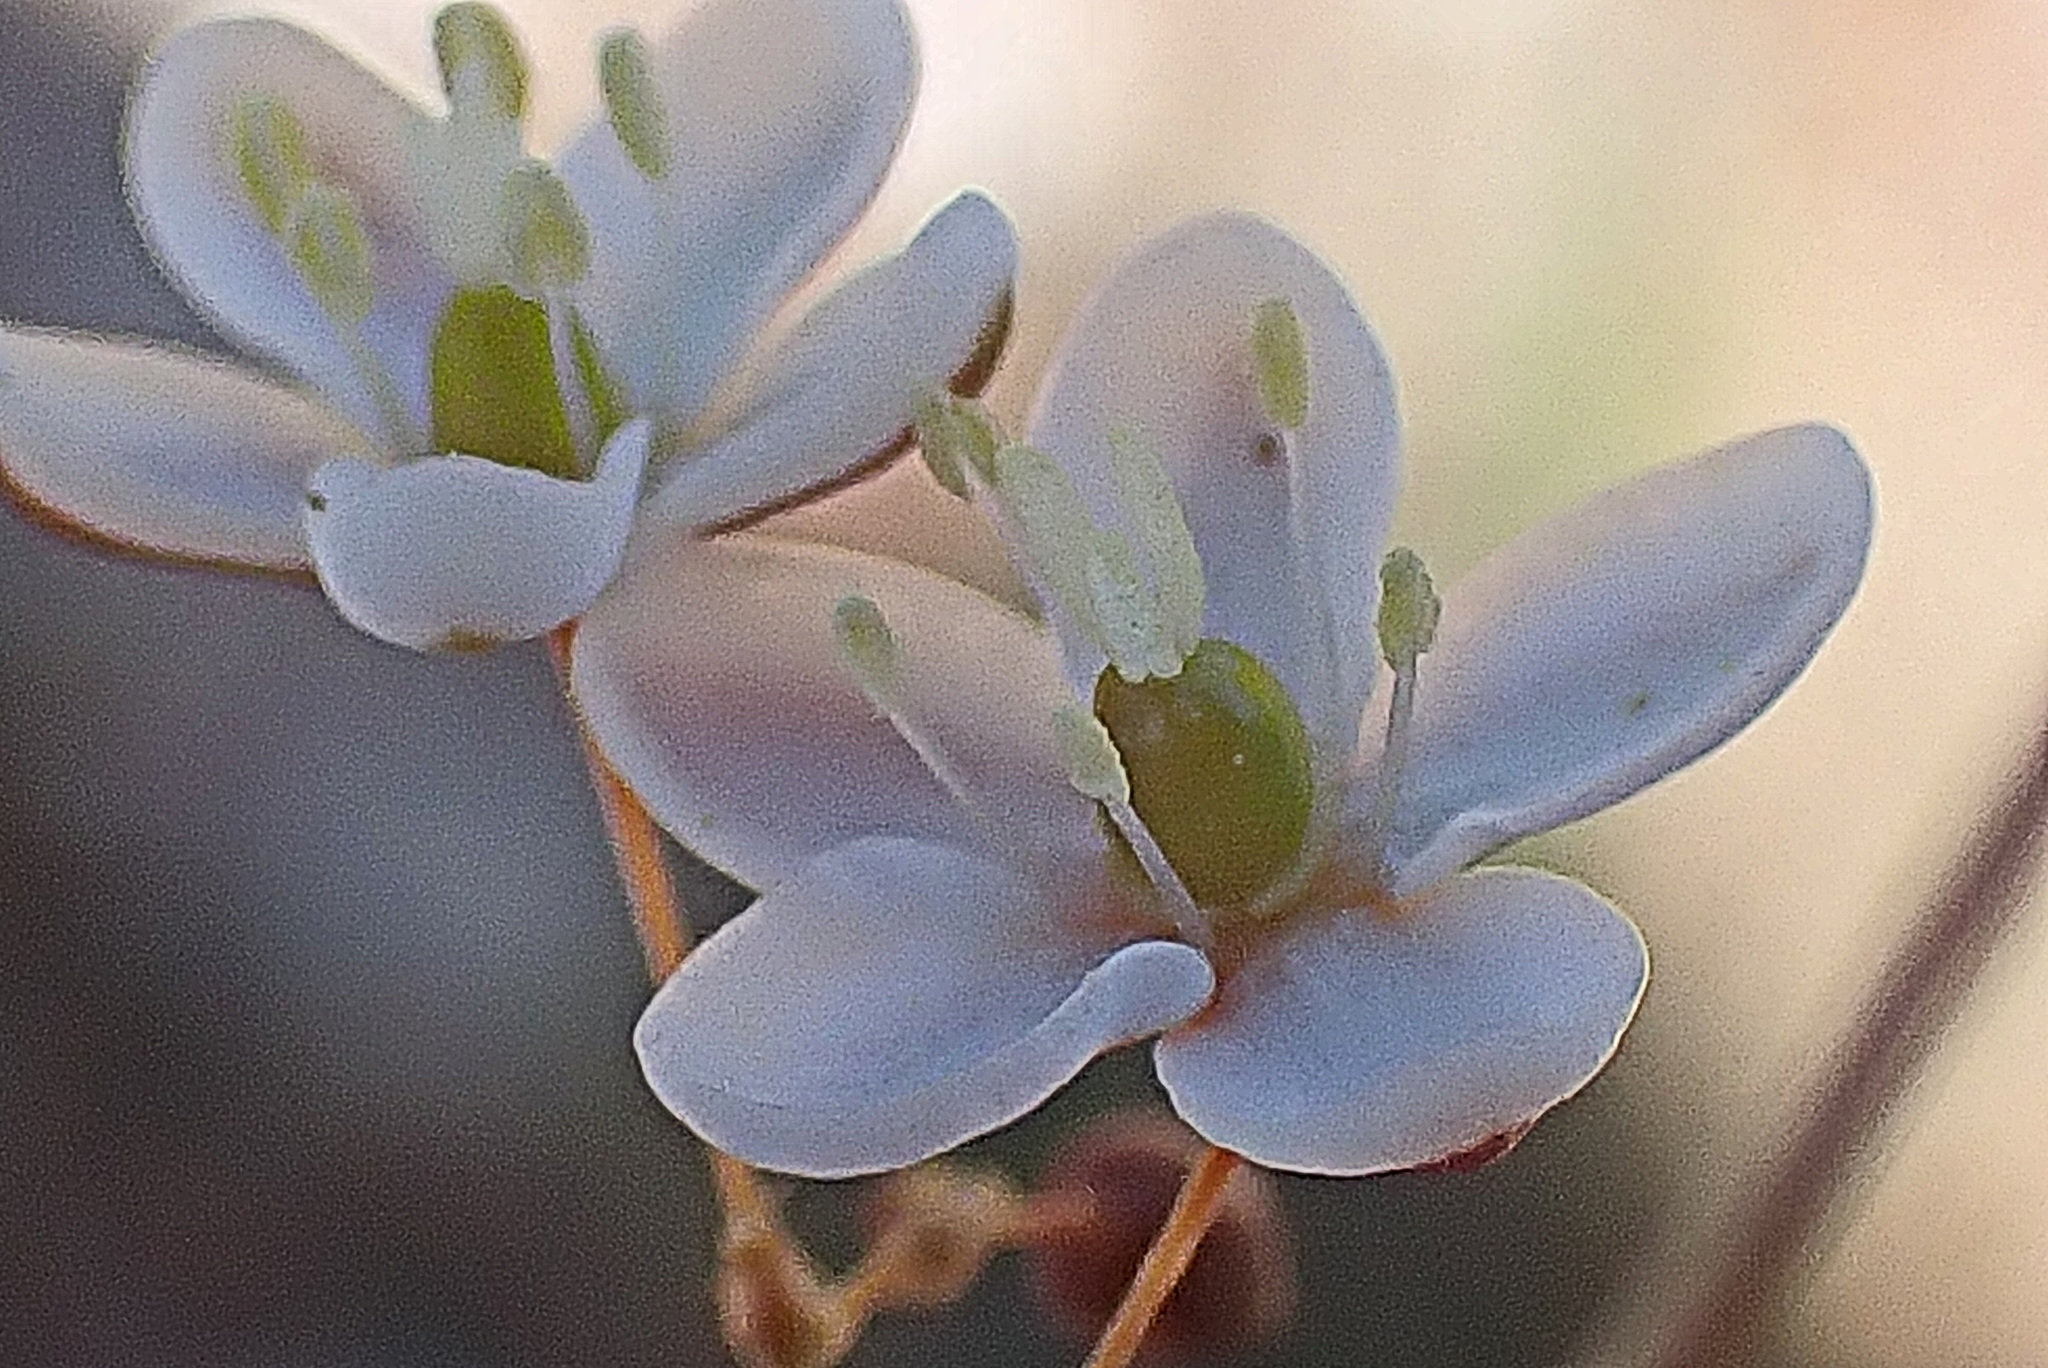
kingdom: Plantae
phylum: Tracheophyta
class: Magnoliopsida
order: Caryophyllales
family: Molluginaceae
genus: Pharnaceum
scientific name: Pharnaceum aurantium
